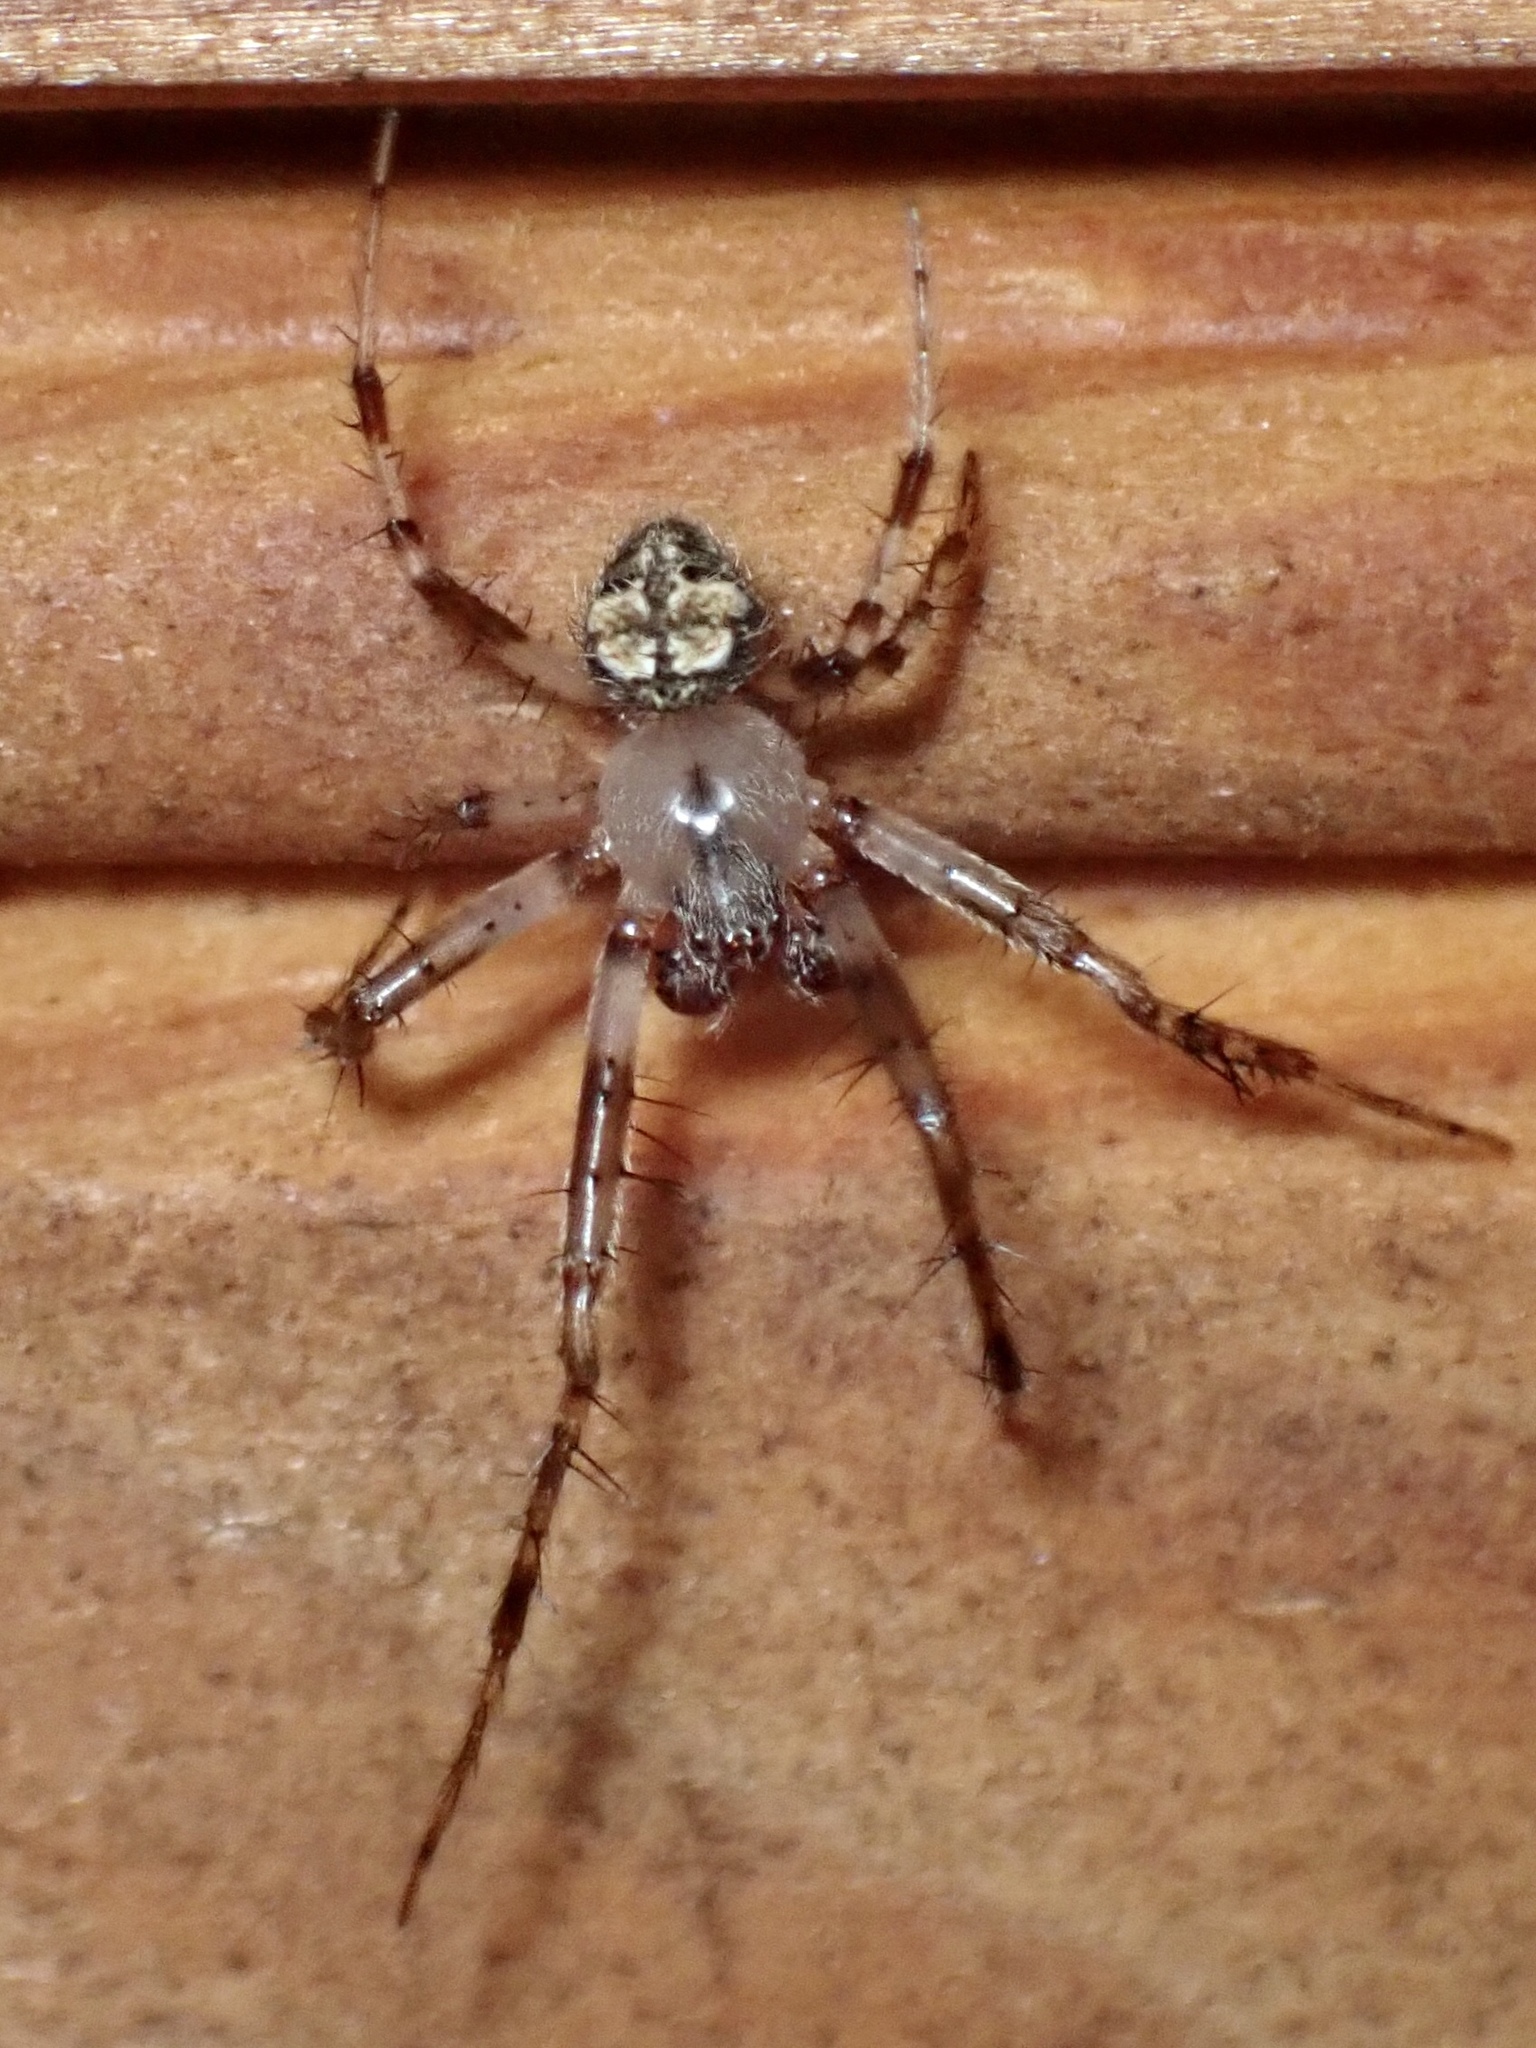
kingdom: Animalia
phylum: Arthropoda
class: Arachnida
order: Araneae
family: Araneidae
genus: Araneus
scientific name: Araneus pegnia
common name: Orb weavers
